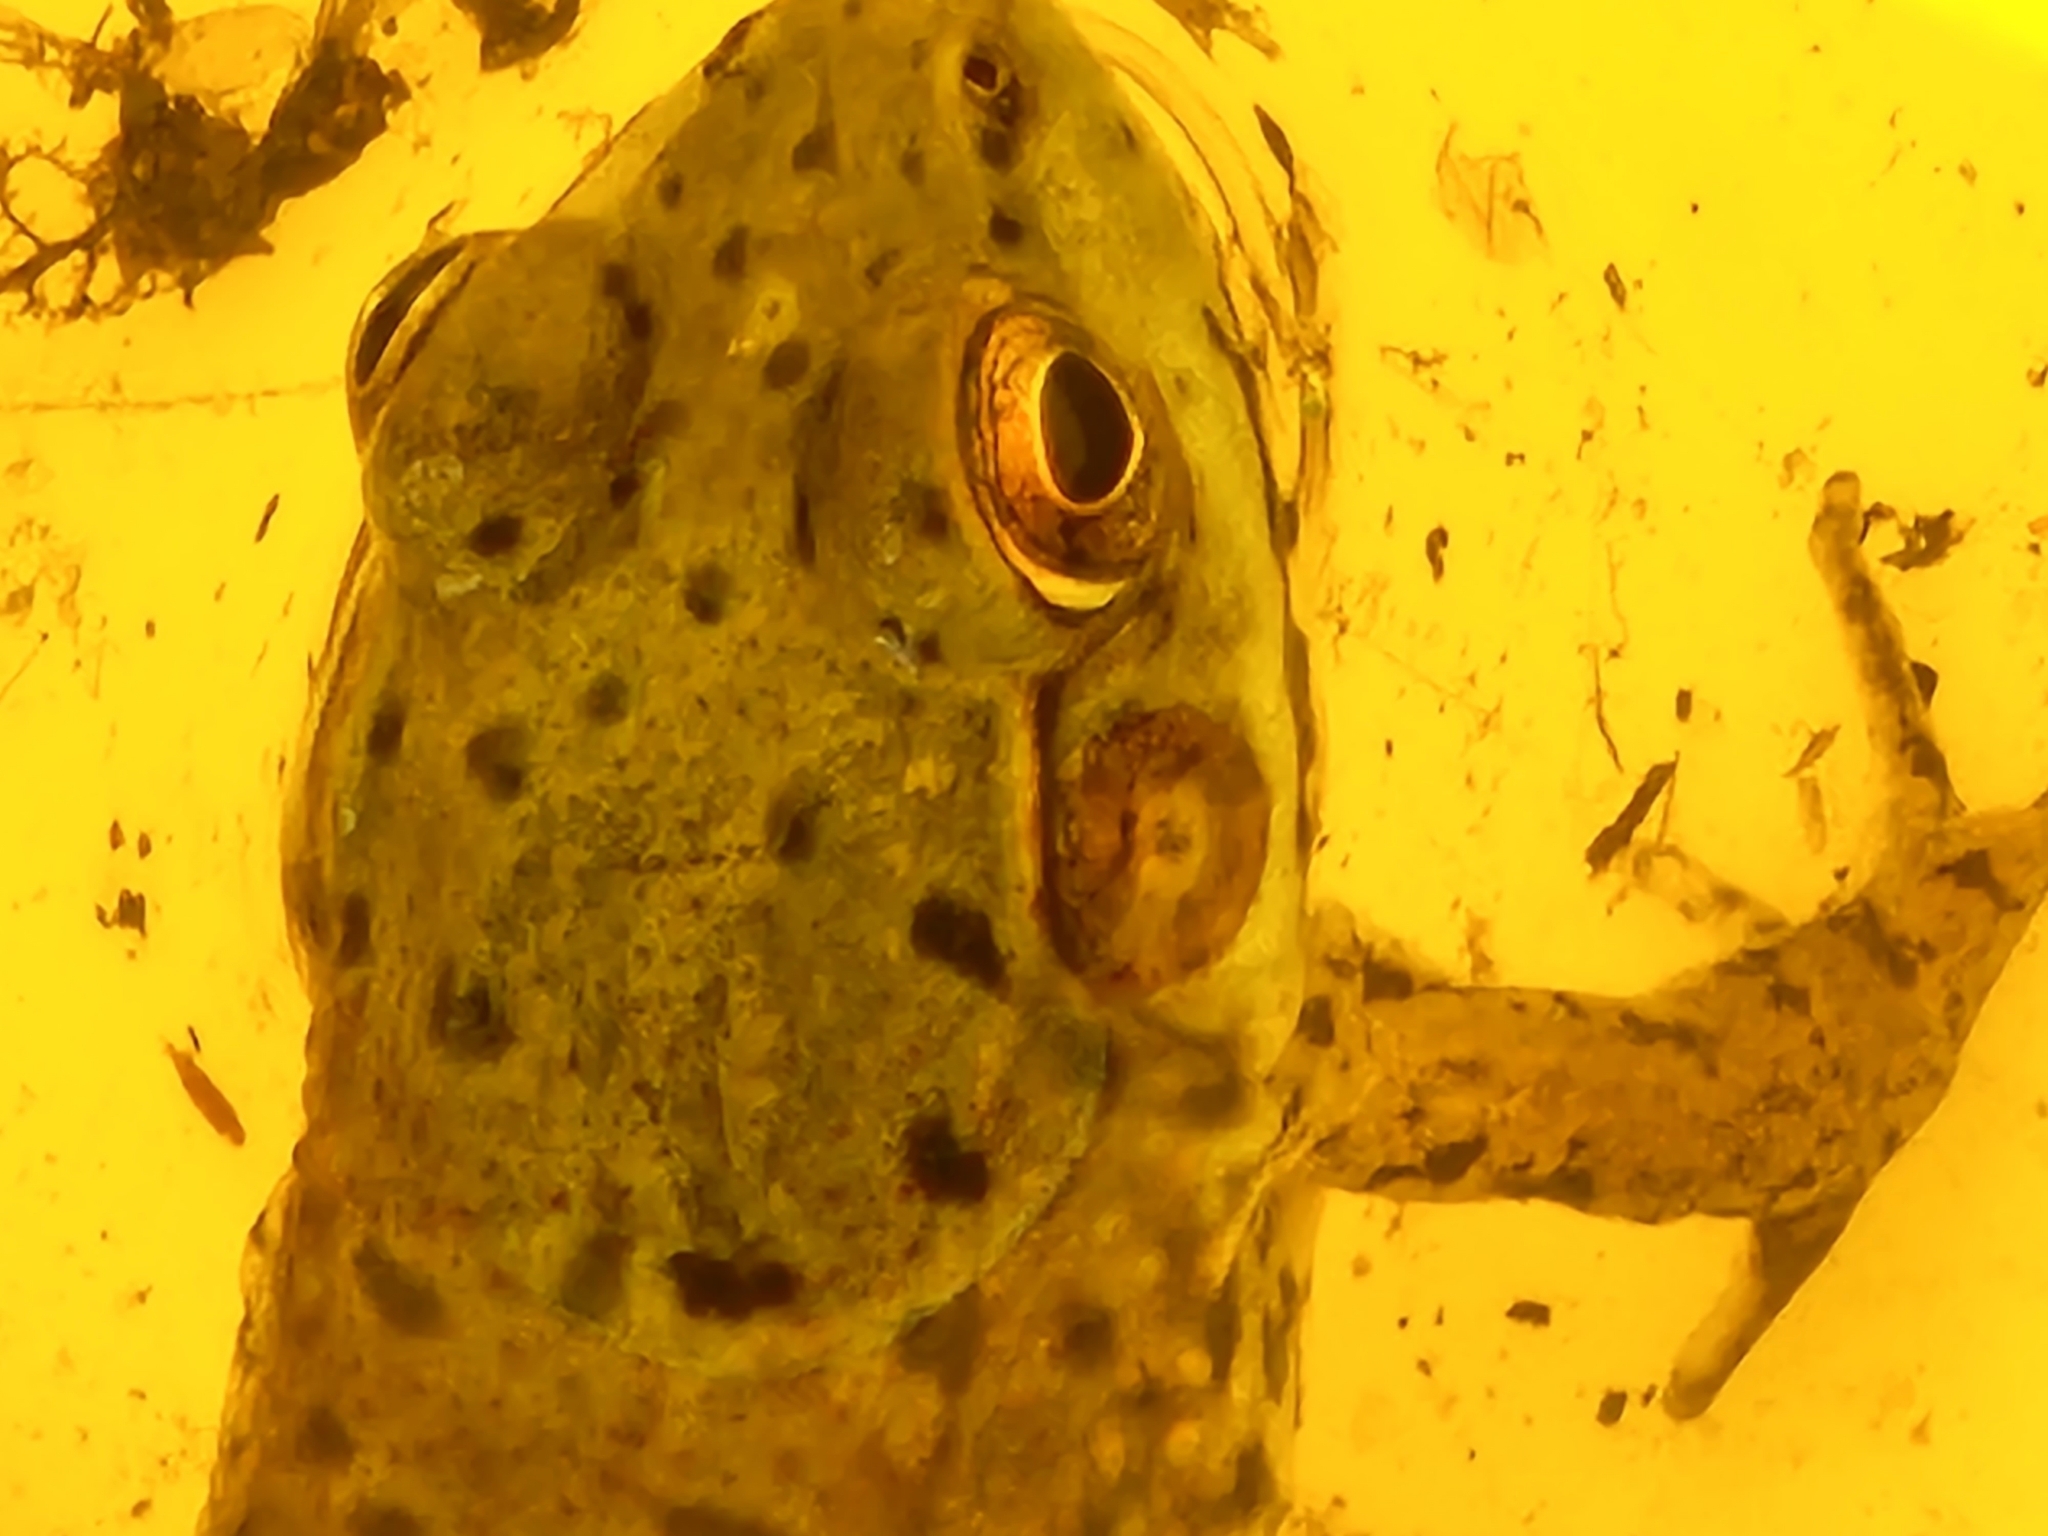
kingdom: Animalia
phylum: Chordata
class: Amphibia
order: Anura
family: Ranidae
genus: Lithobates
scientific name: Lithobates clamitans
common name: Green frog
